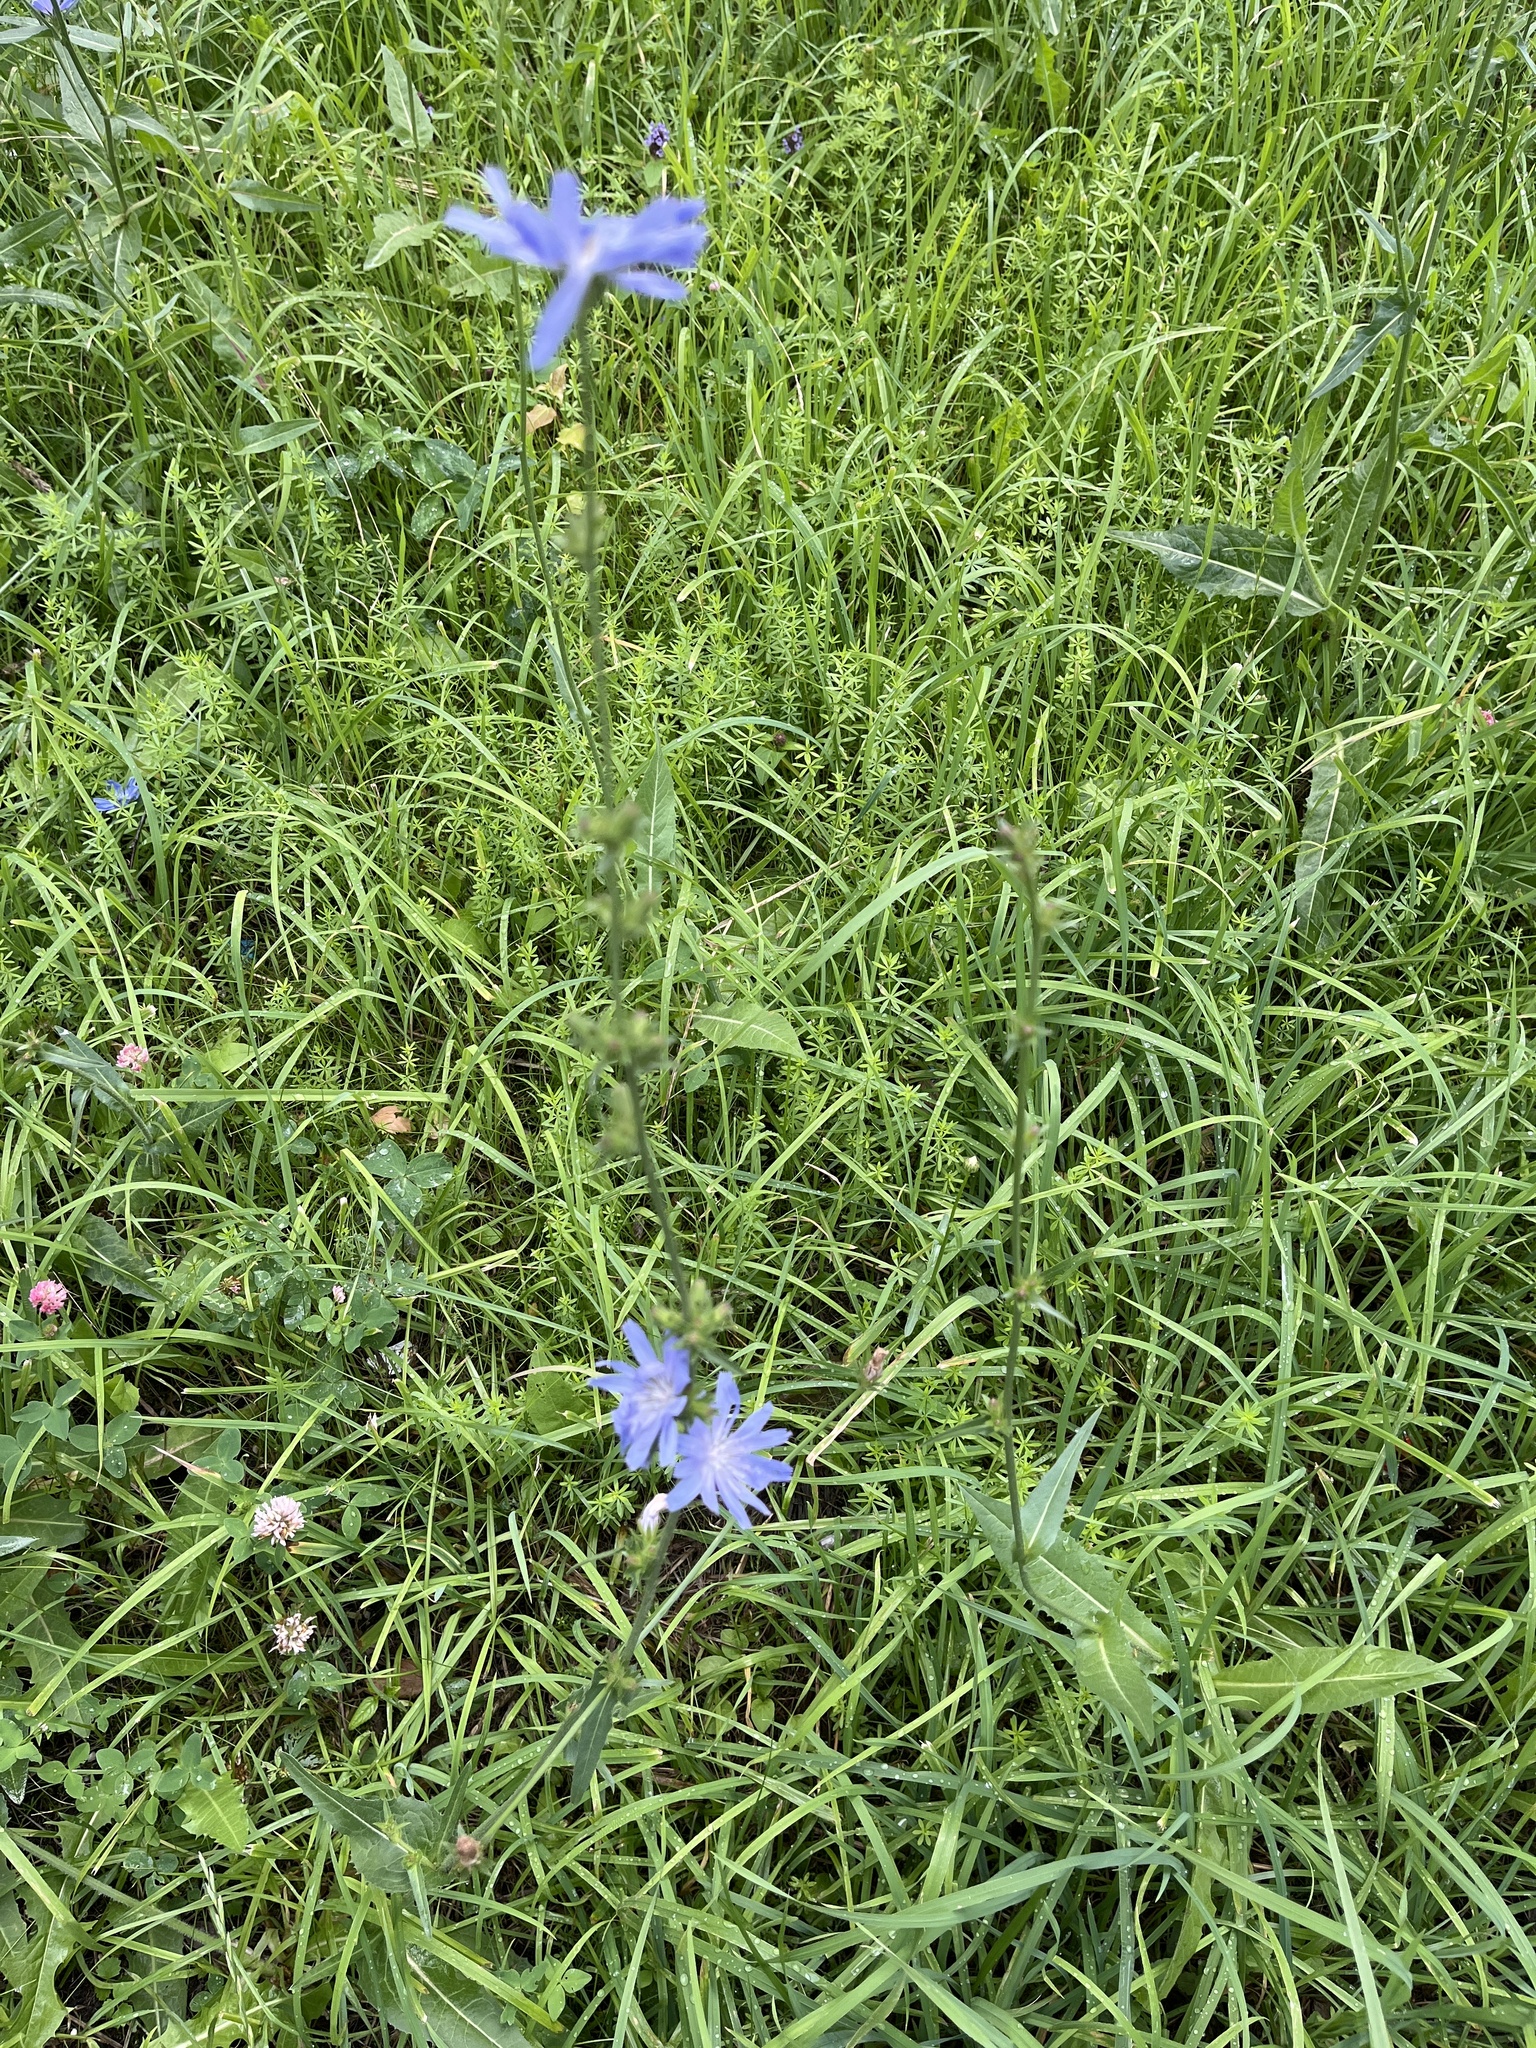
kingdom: Plantae
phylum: Tracheophyta
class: Magnoliopsida
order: Asterales
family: Asteraceae
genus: Cichorium
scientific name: Cichorium intybus
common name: Chicory
